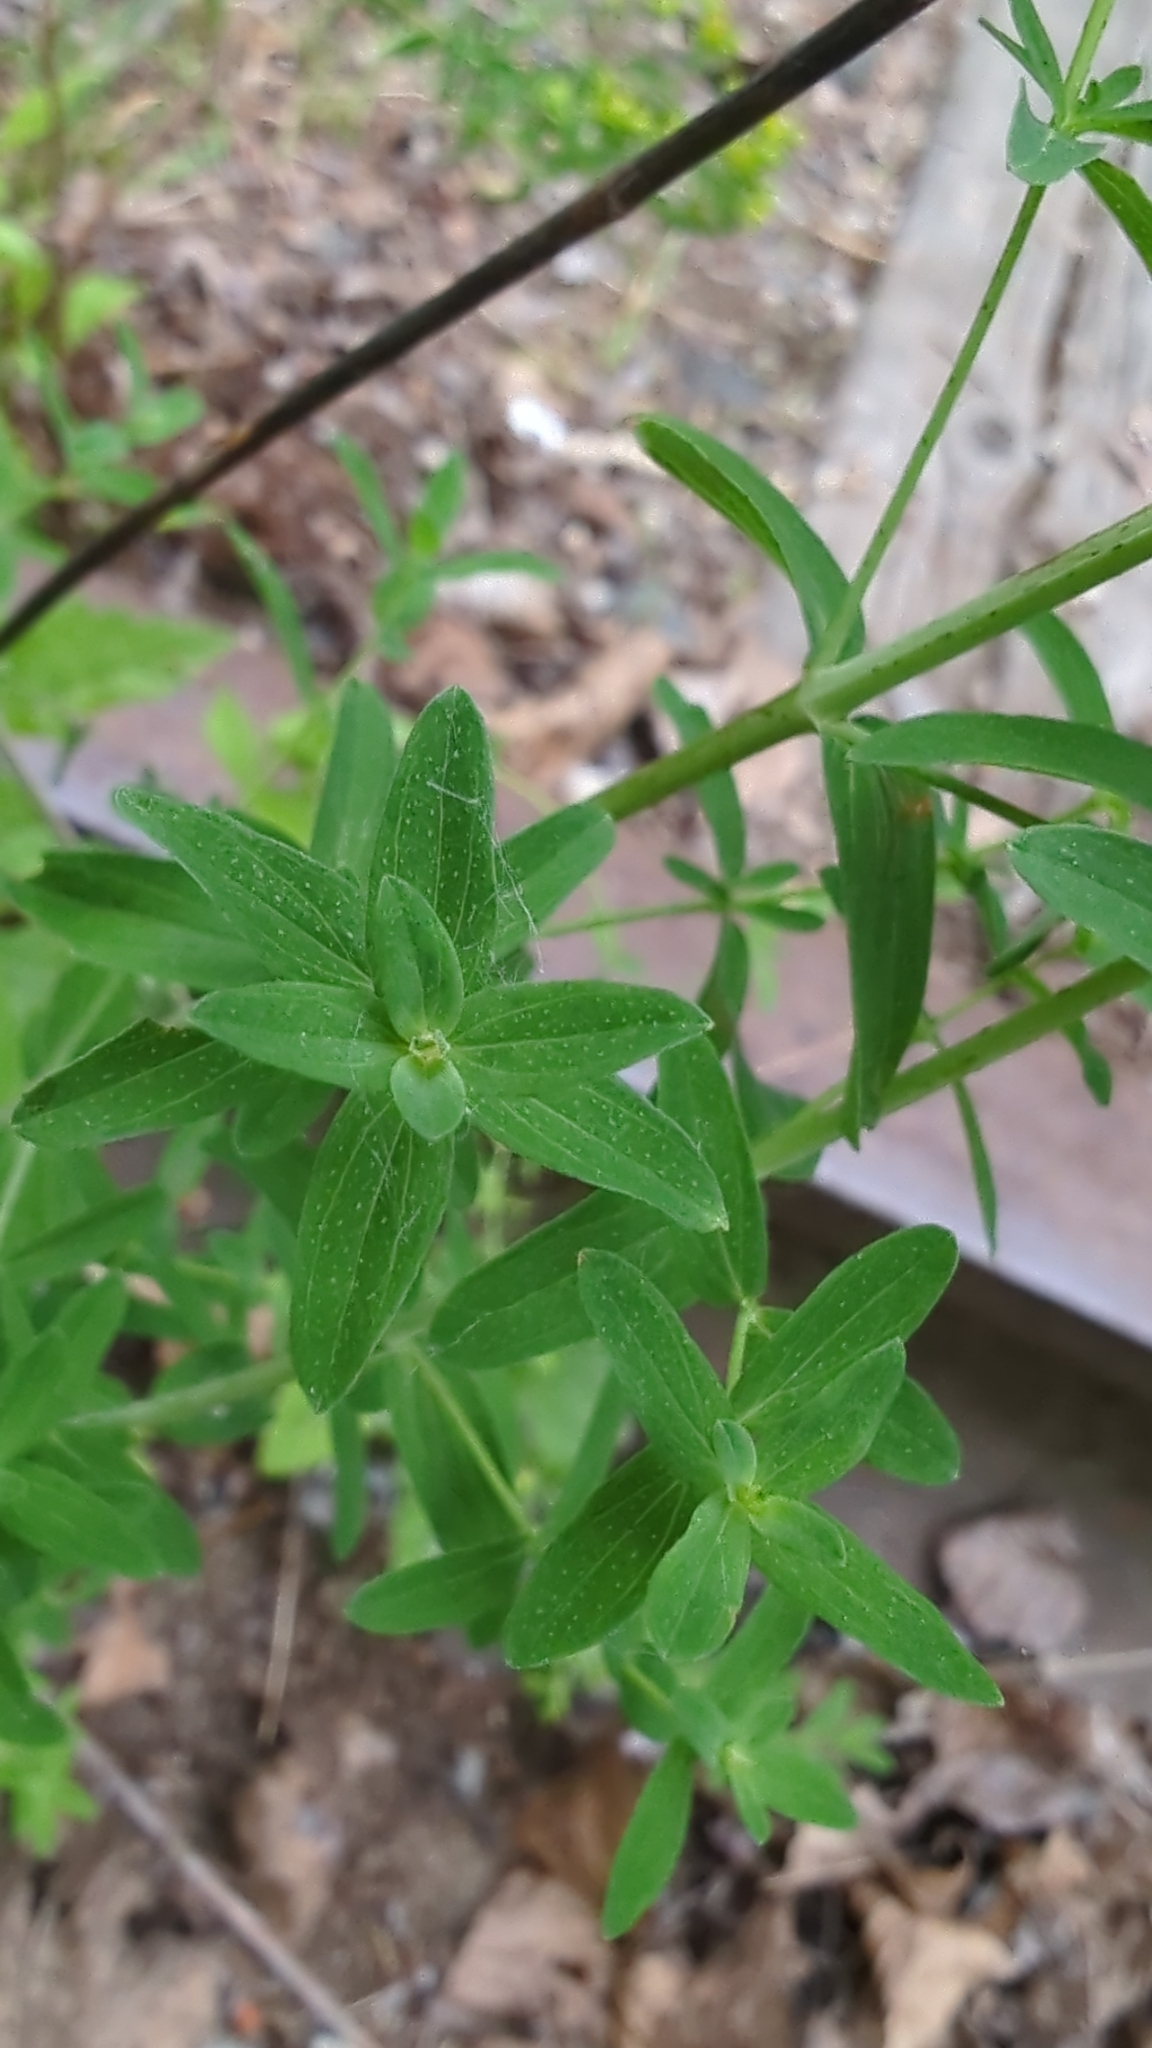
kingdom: Plantae
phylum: Tracheophyta
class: Magnoliopsida
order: Malpighiales
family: Hypericaceae
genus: Hypericum
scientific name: Hypericum perforatum
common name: Common st. johnswort
